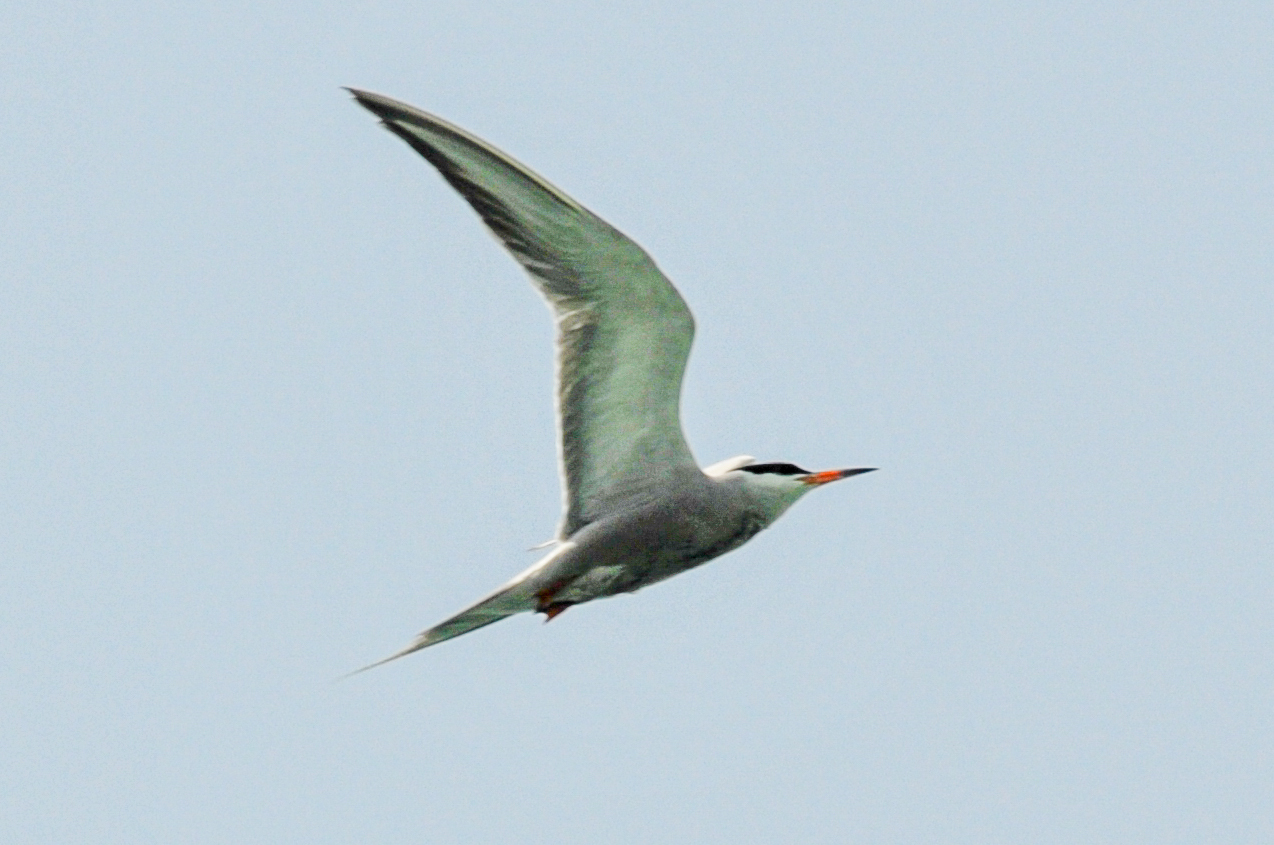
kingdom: Animalia
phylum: Chordata
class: Aves
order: Charadriiformes
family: Laridae
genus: Sterna
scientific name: Sterna repressa
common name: White-cheeked tern
